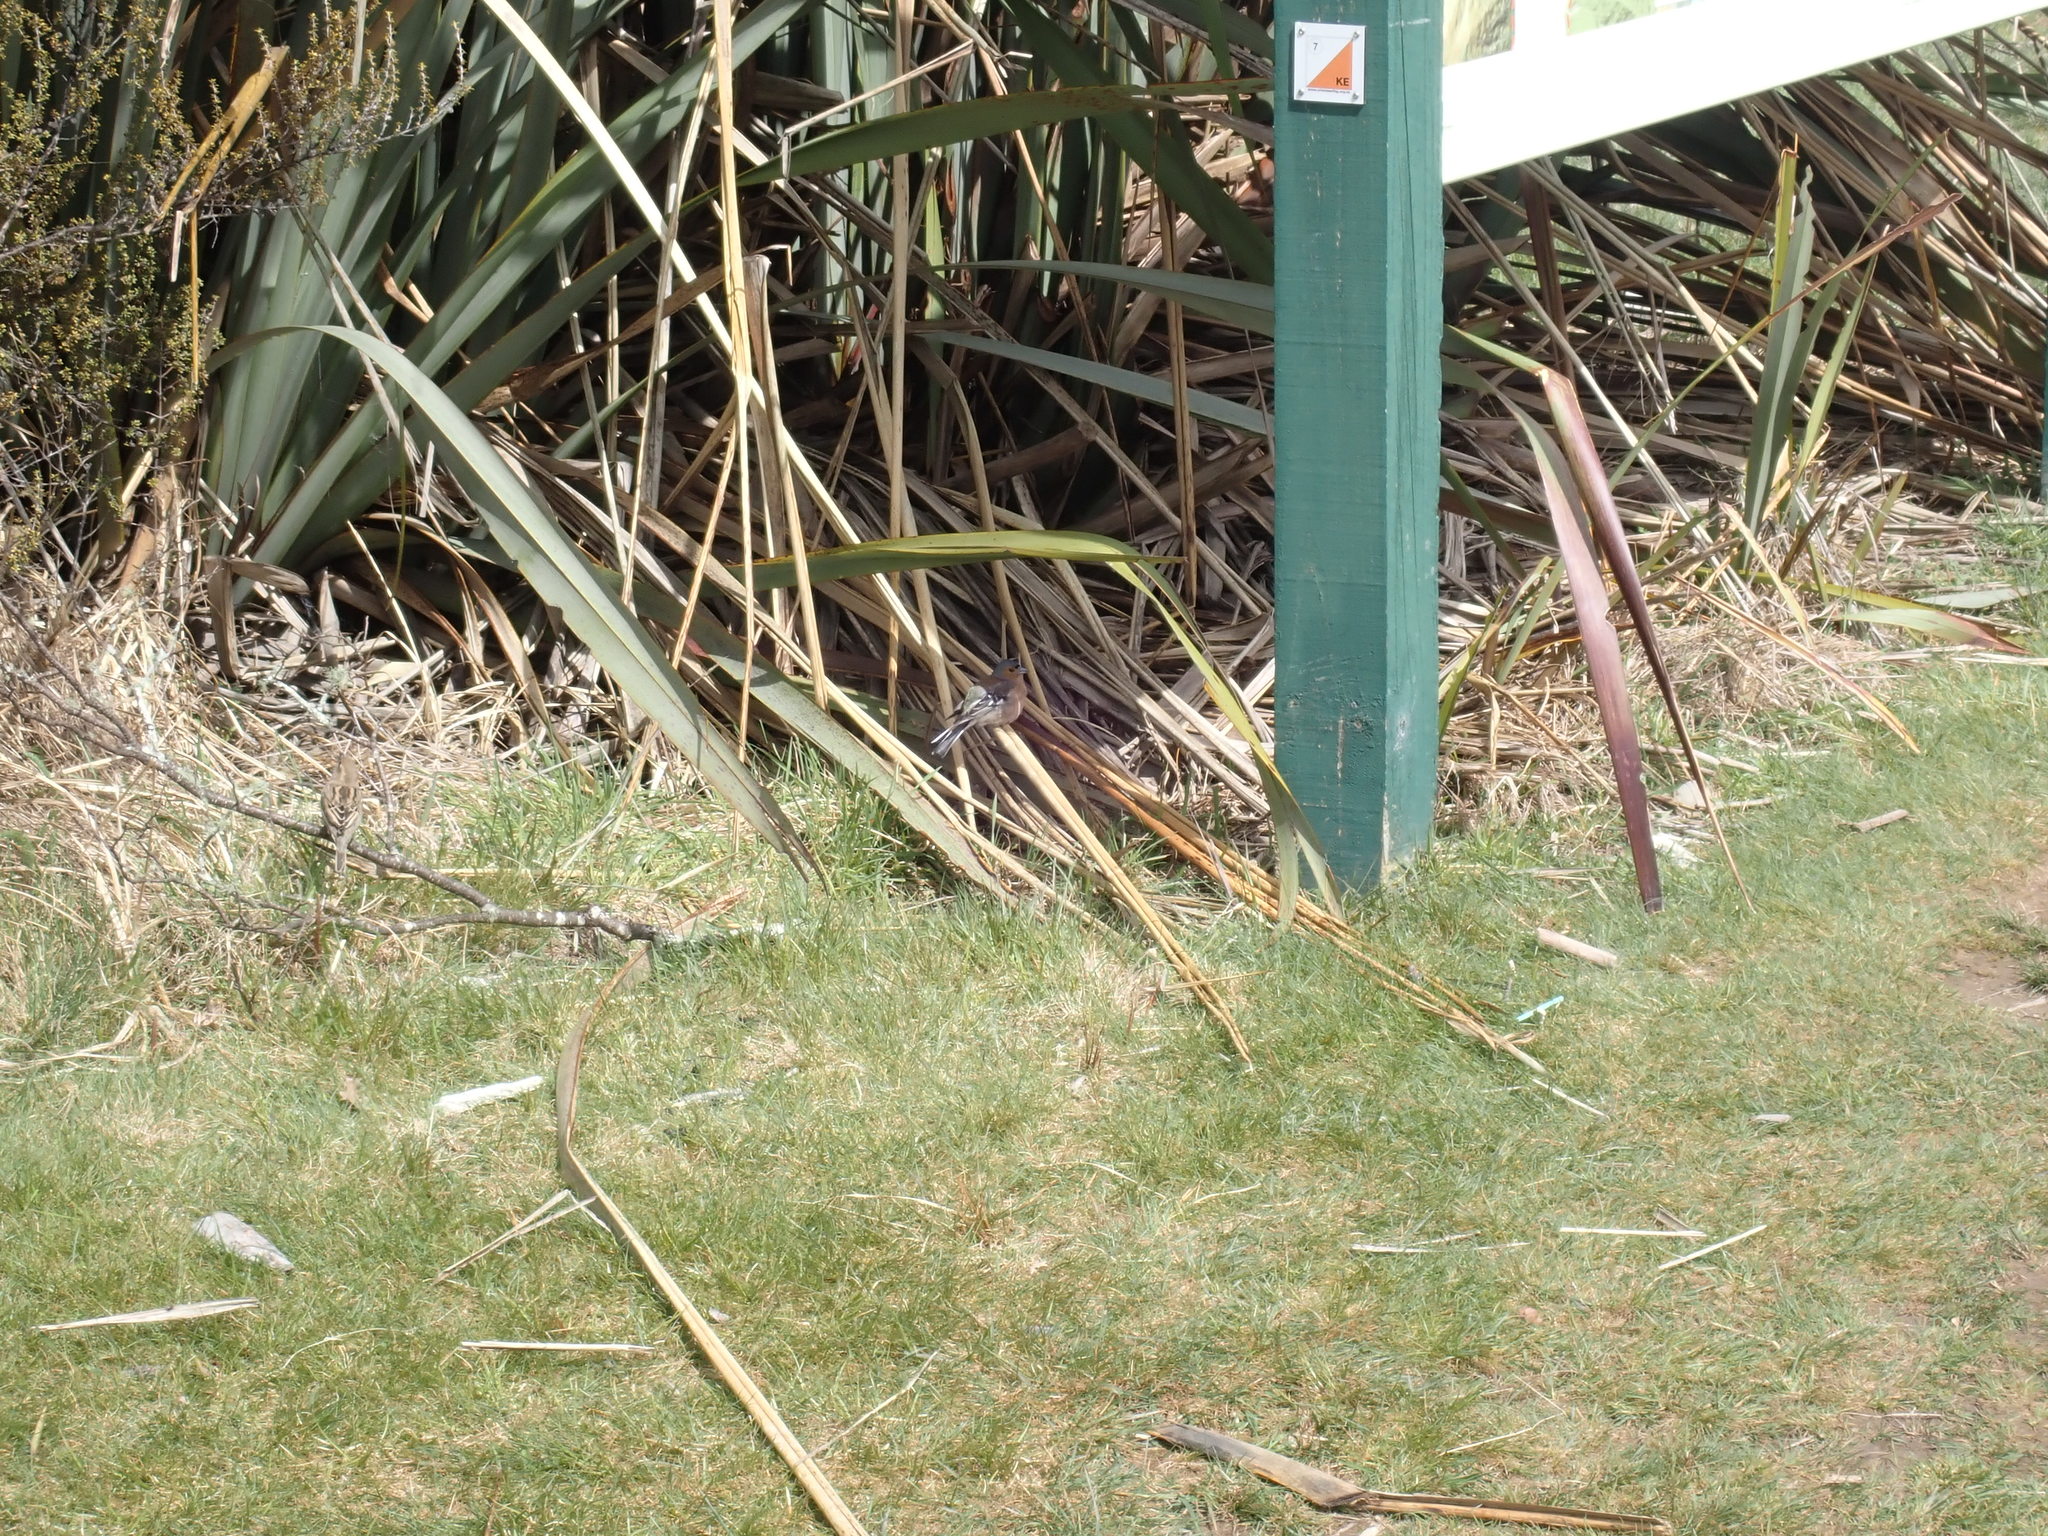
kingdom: Animalia
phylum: Chordata
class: Aves
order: Passeriformes
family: Fringillidae
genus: Fringilla
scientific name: Fringilla coelebs
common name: Common chaffinch
